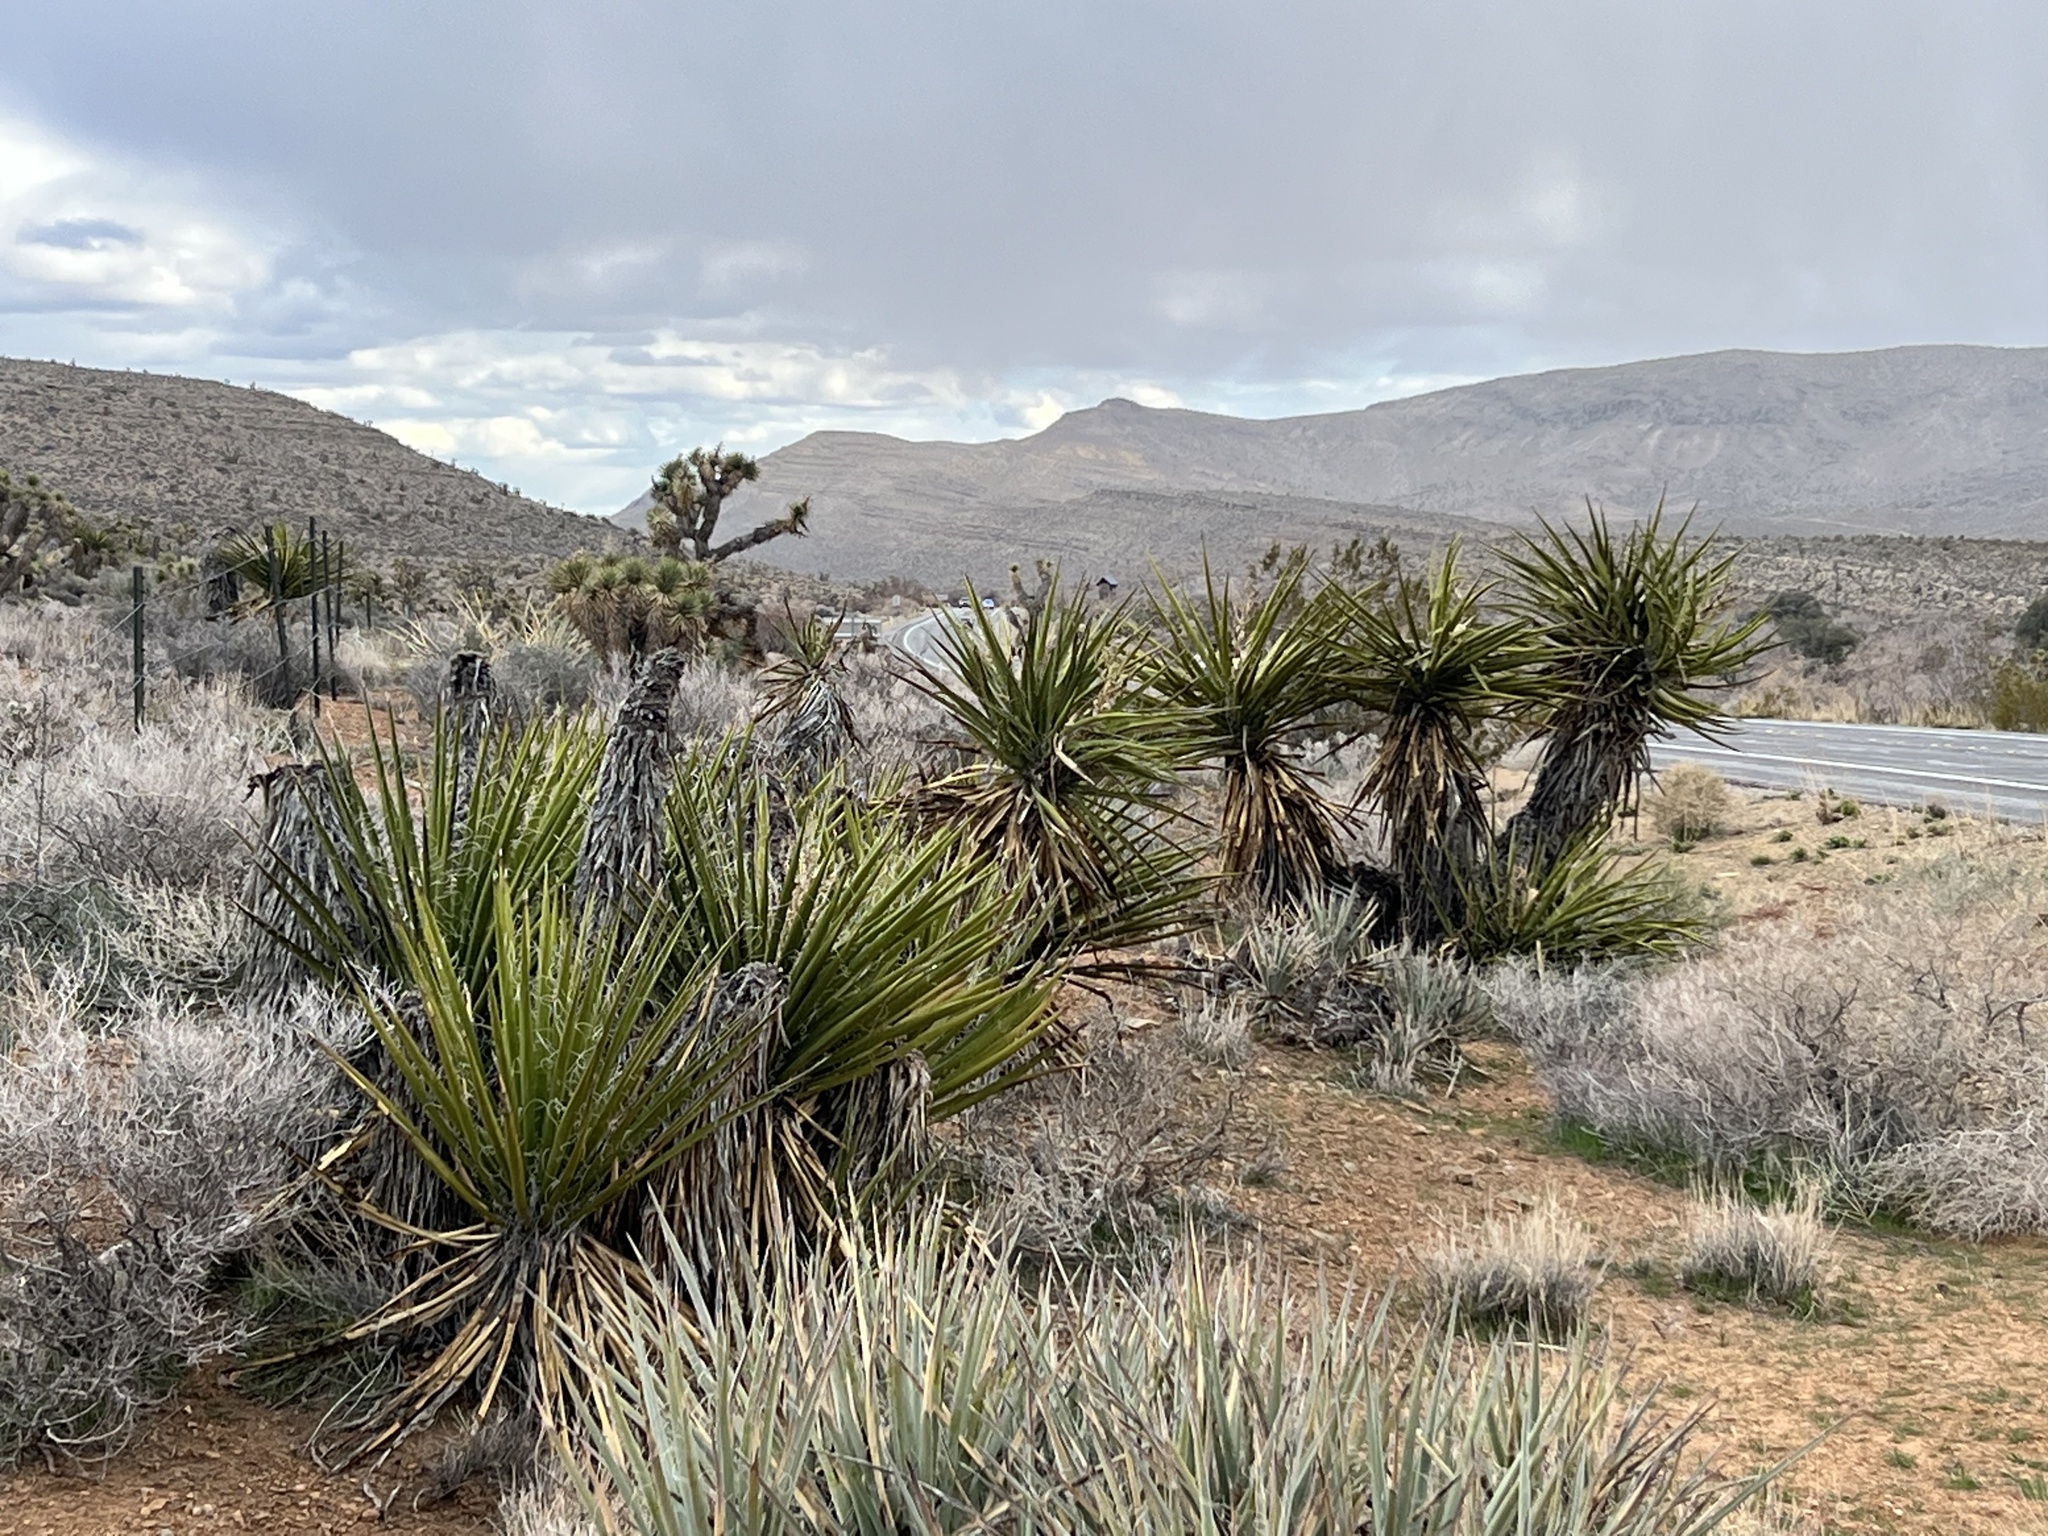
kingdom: Plantae
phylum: Tracheophyta
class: Liliopsida
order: Asparagales
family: Asparagaceae
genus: Yucca
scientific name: Yucca schidigera
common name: Mojave yucca
